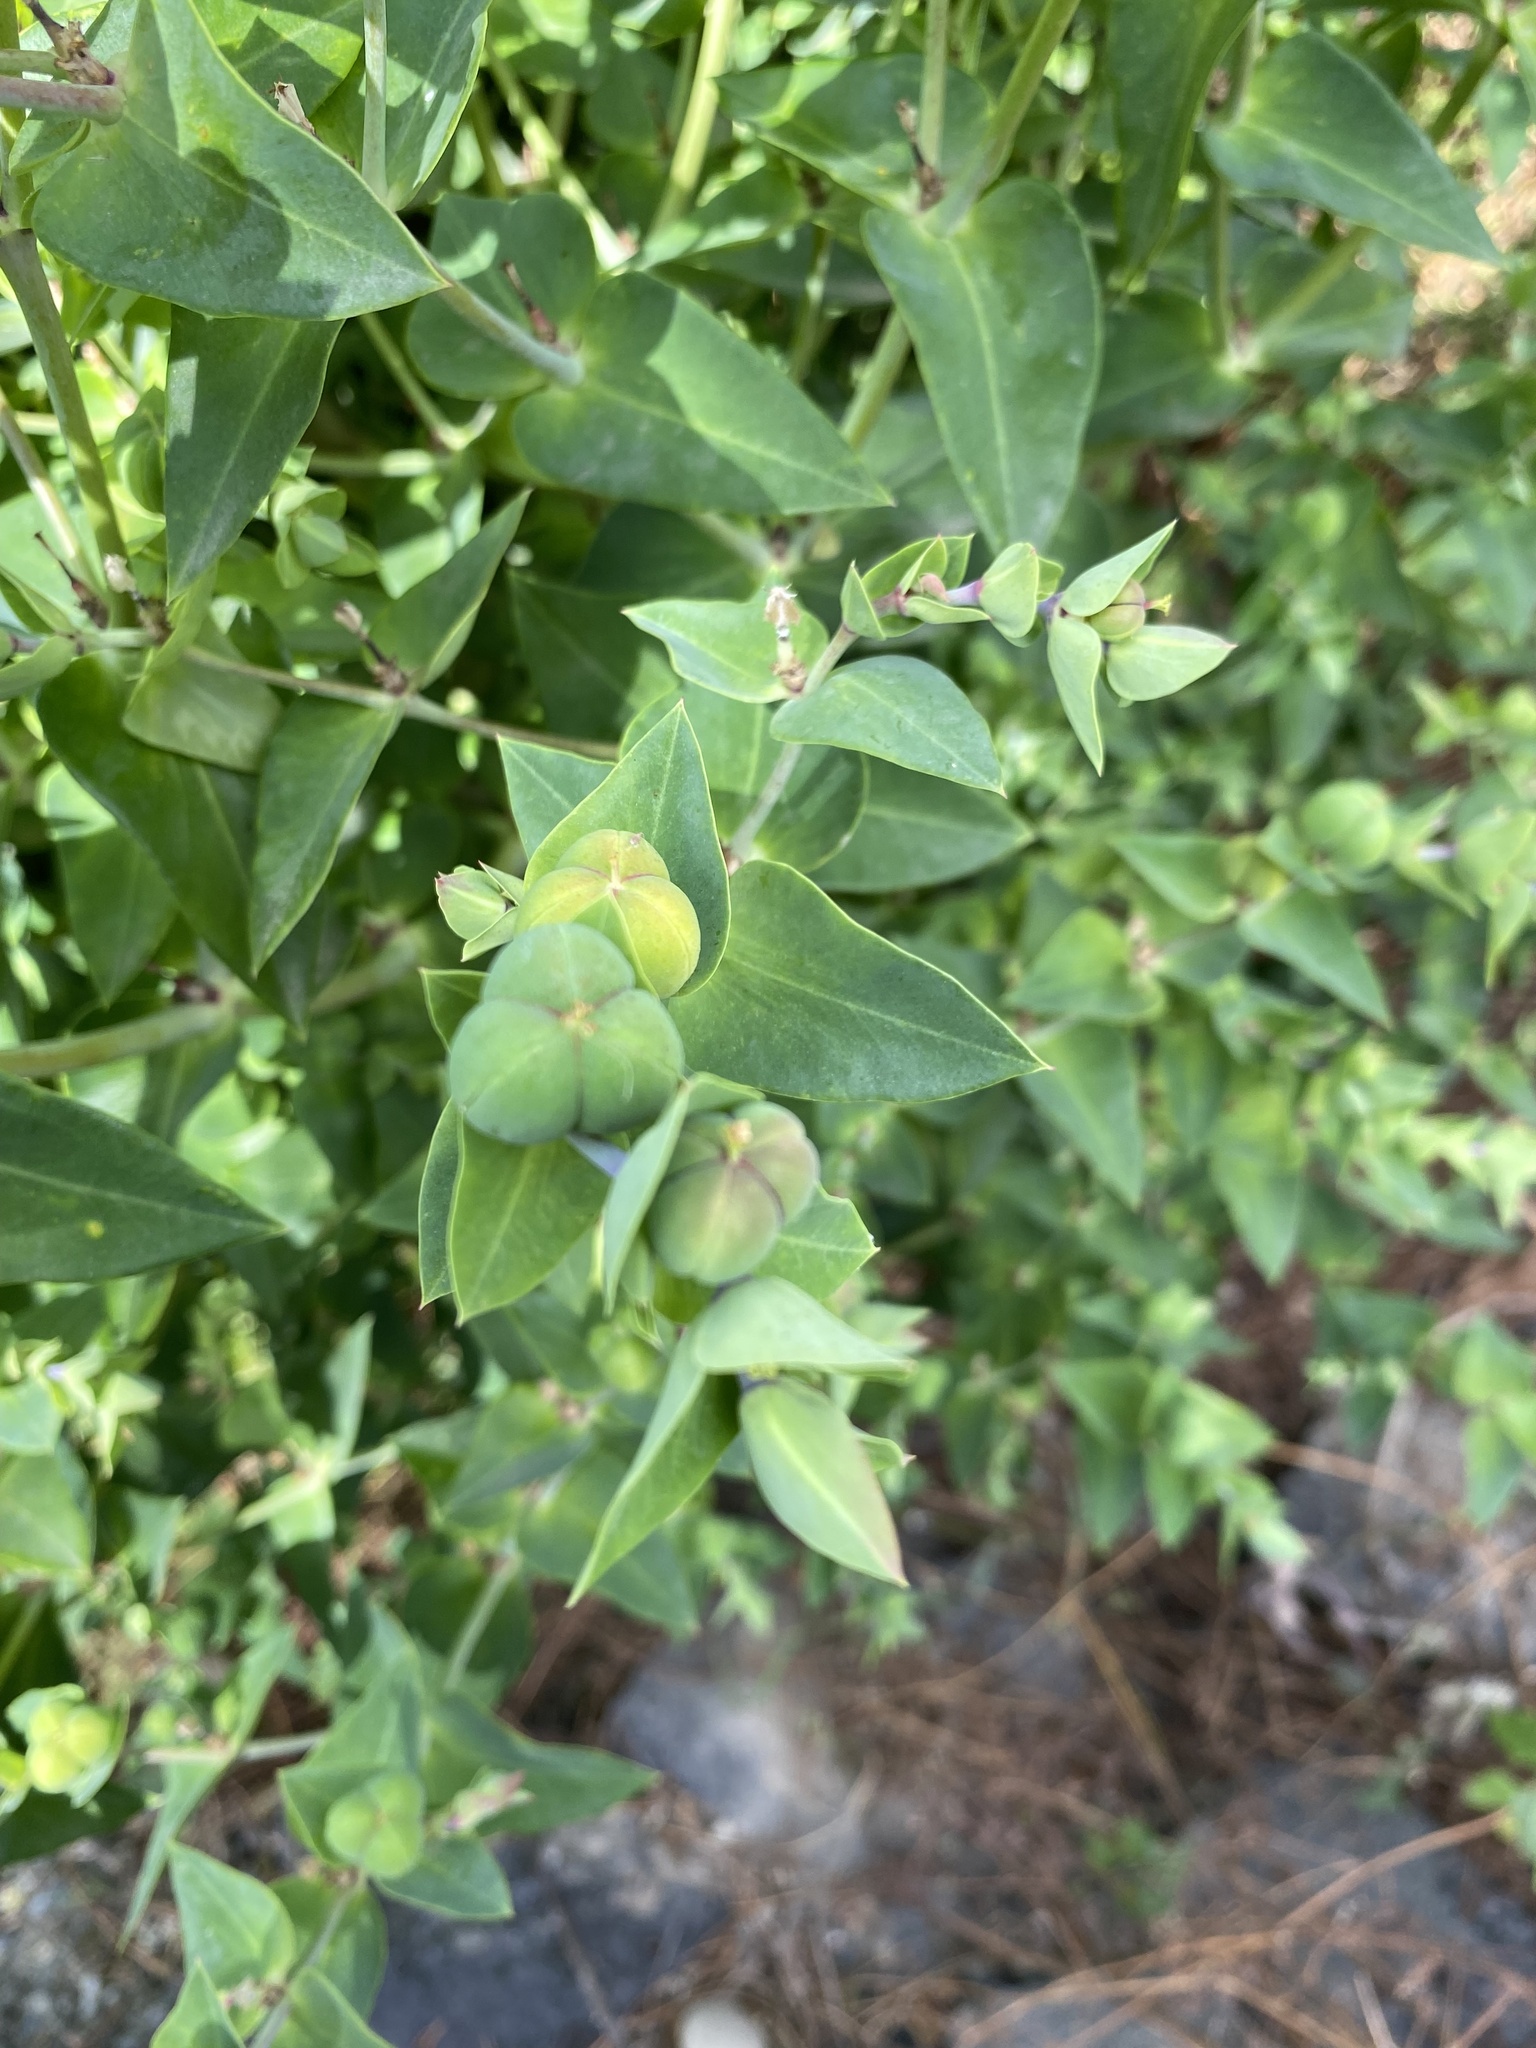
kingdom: Plantae
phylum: Tracheophyta
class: Magnoliopsida
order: Malpighiales
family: Euphorbiaceae
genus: Euphorbia
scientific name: Euphorbia lathyris
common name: Caper spurge
